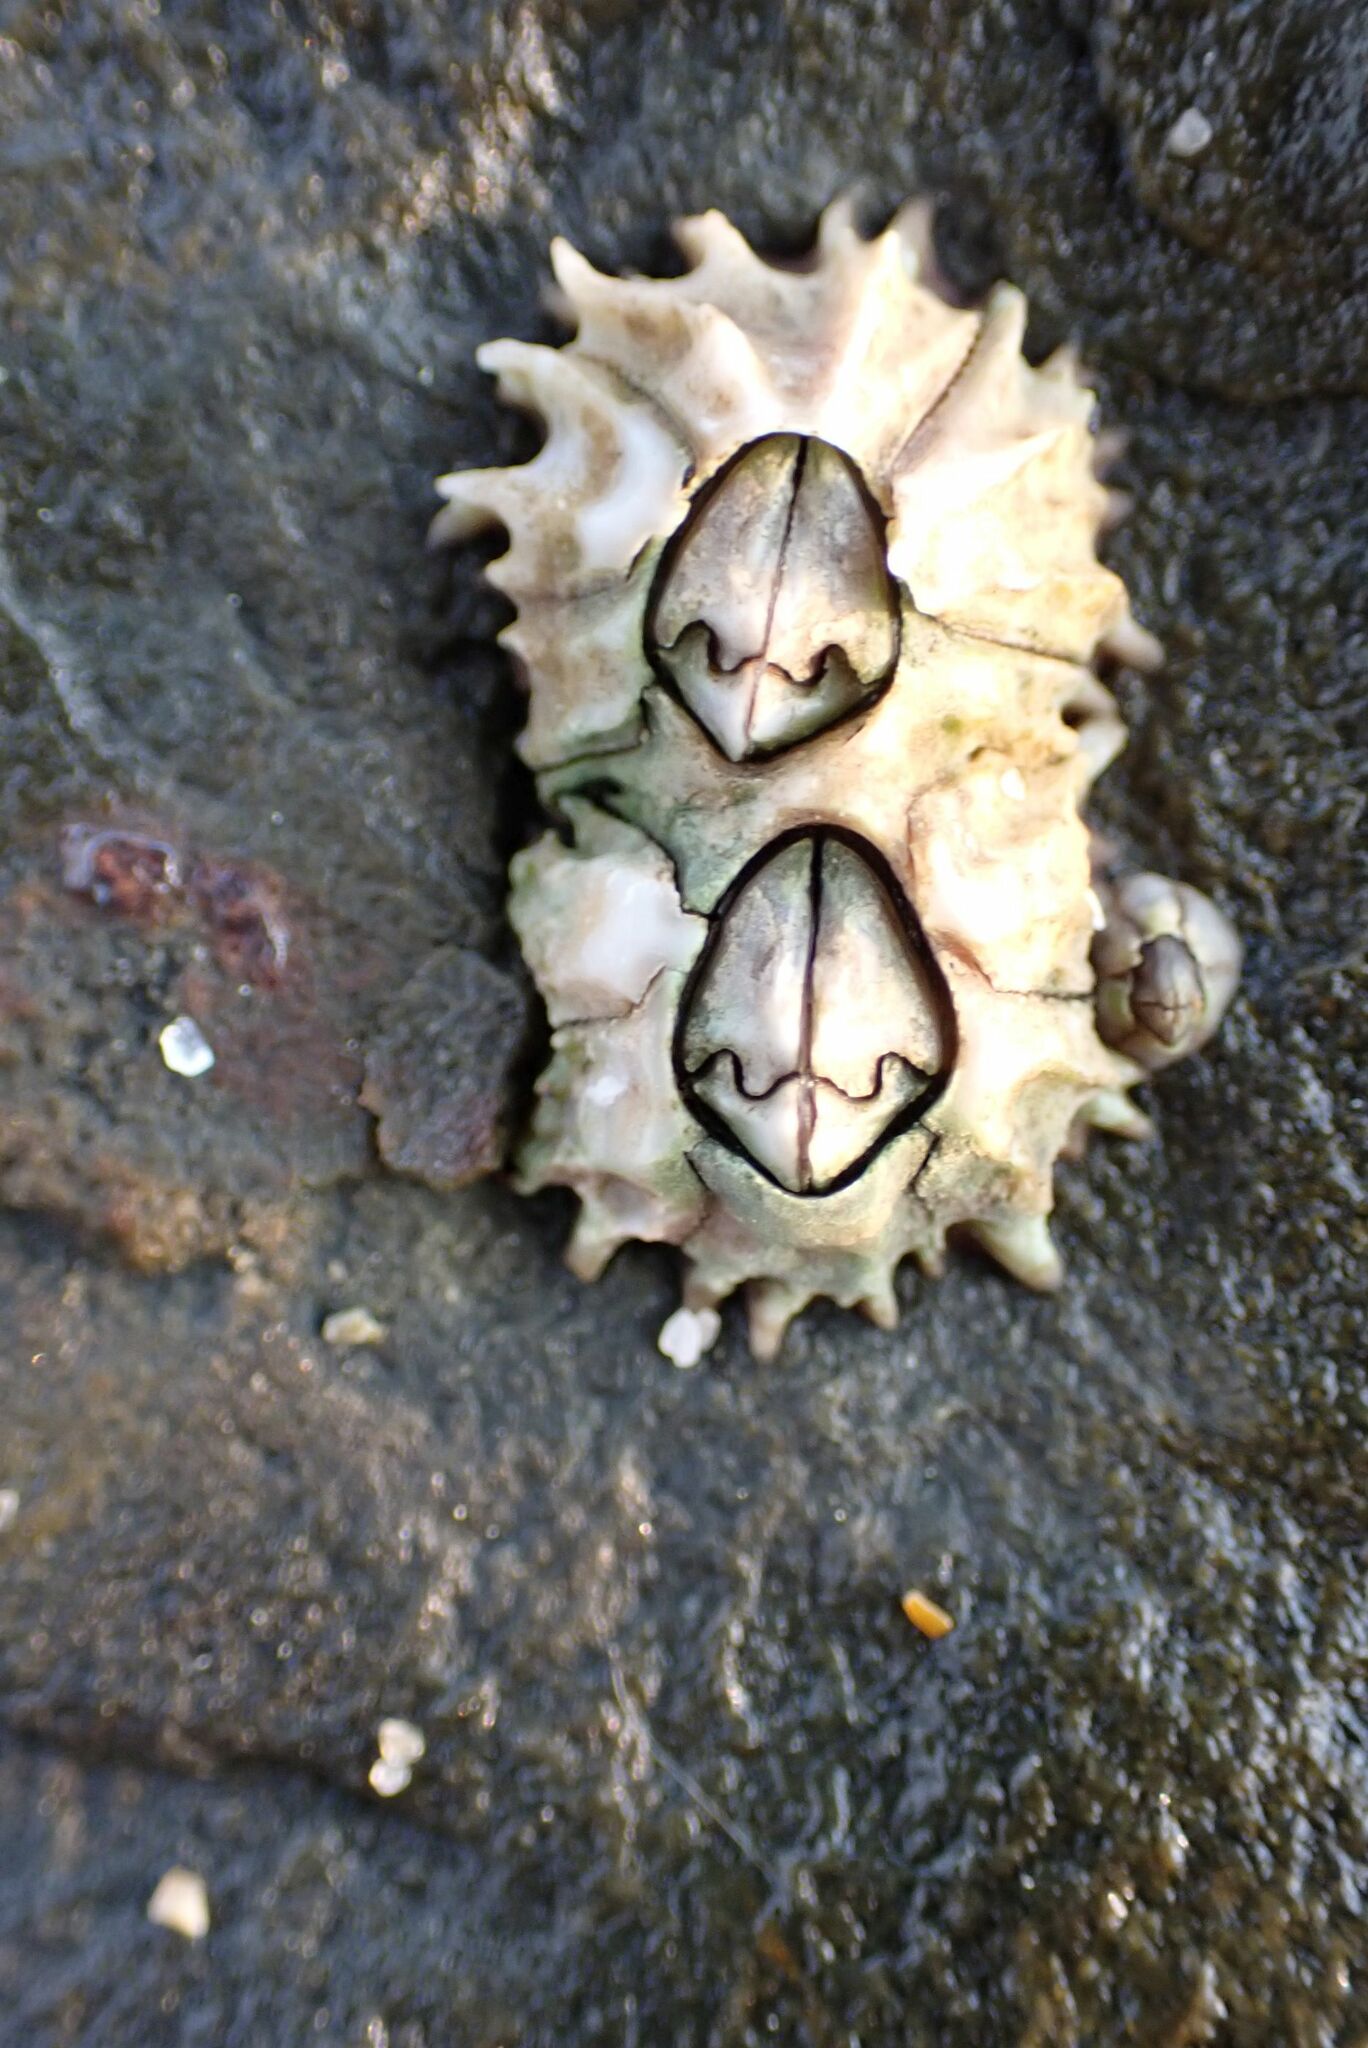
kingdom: Animalia
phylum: Arthropoda
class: Maxillopoda
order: Sessilia
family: Chthamalidae
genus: Chthamalus
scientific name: Chthamalus dentatus
